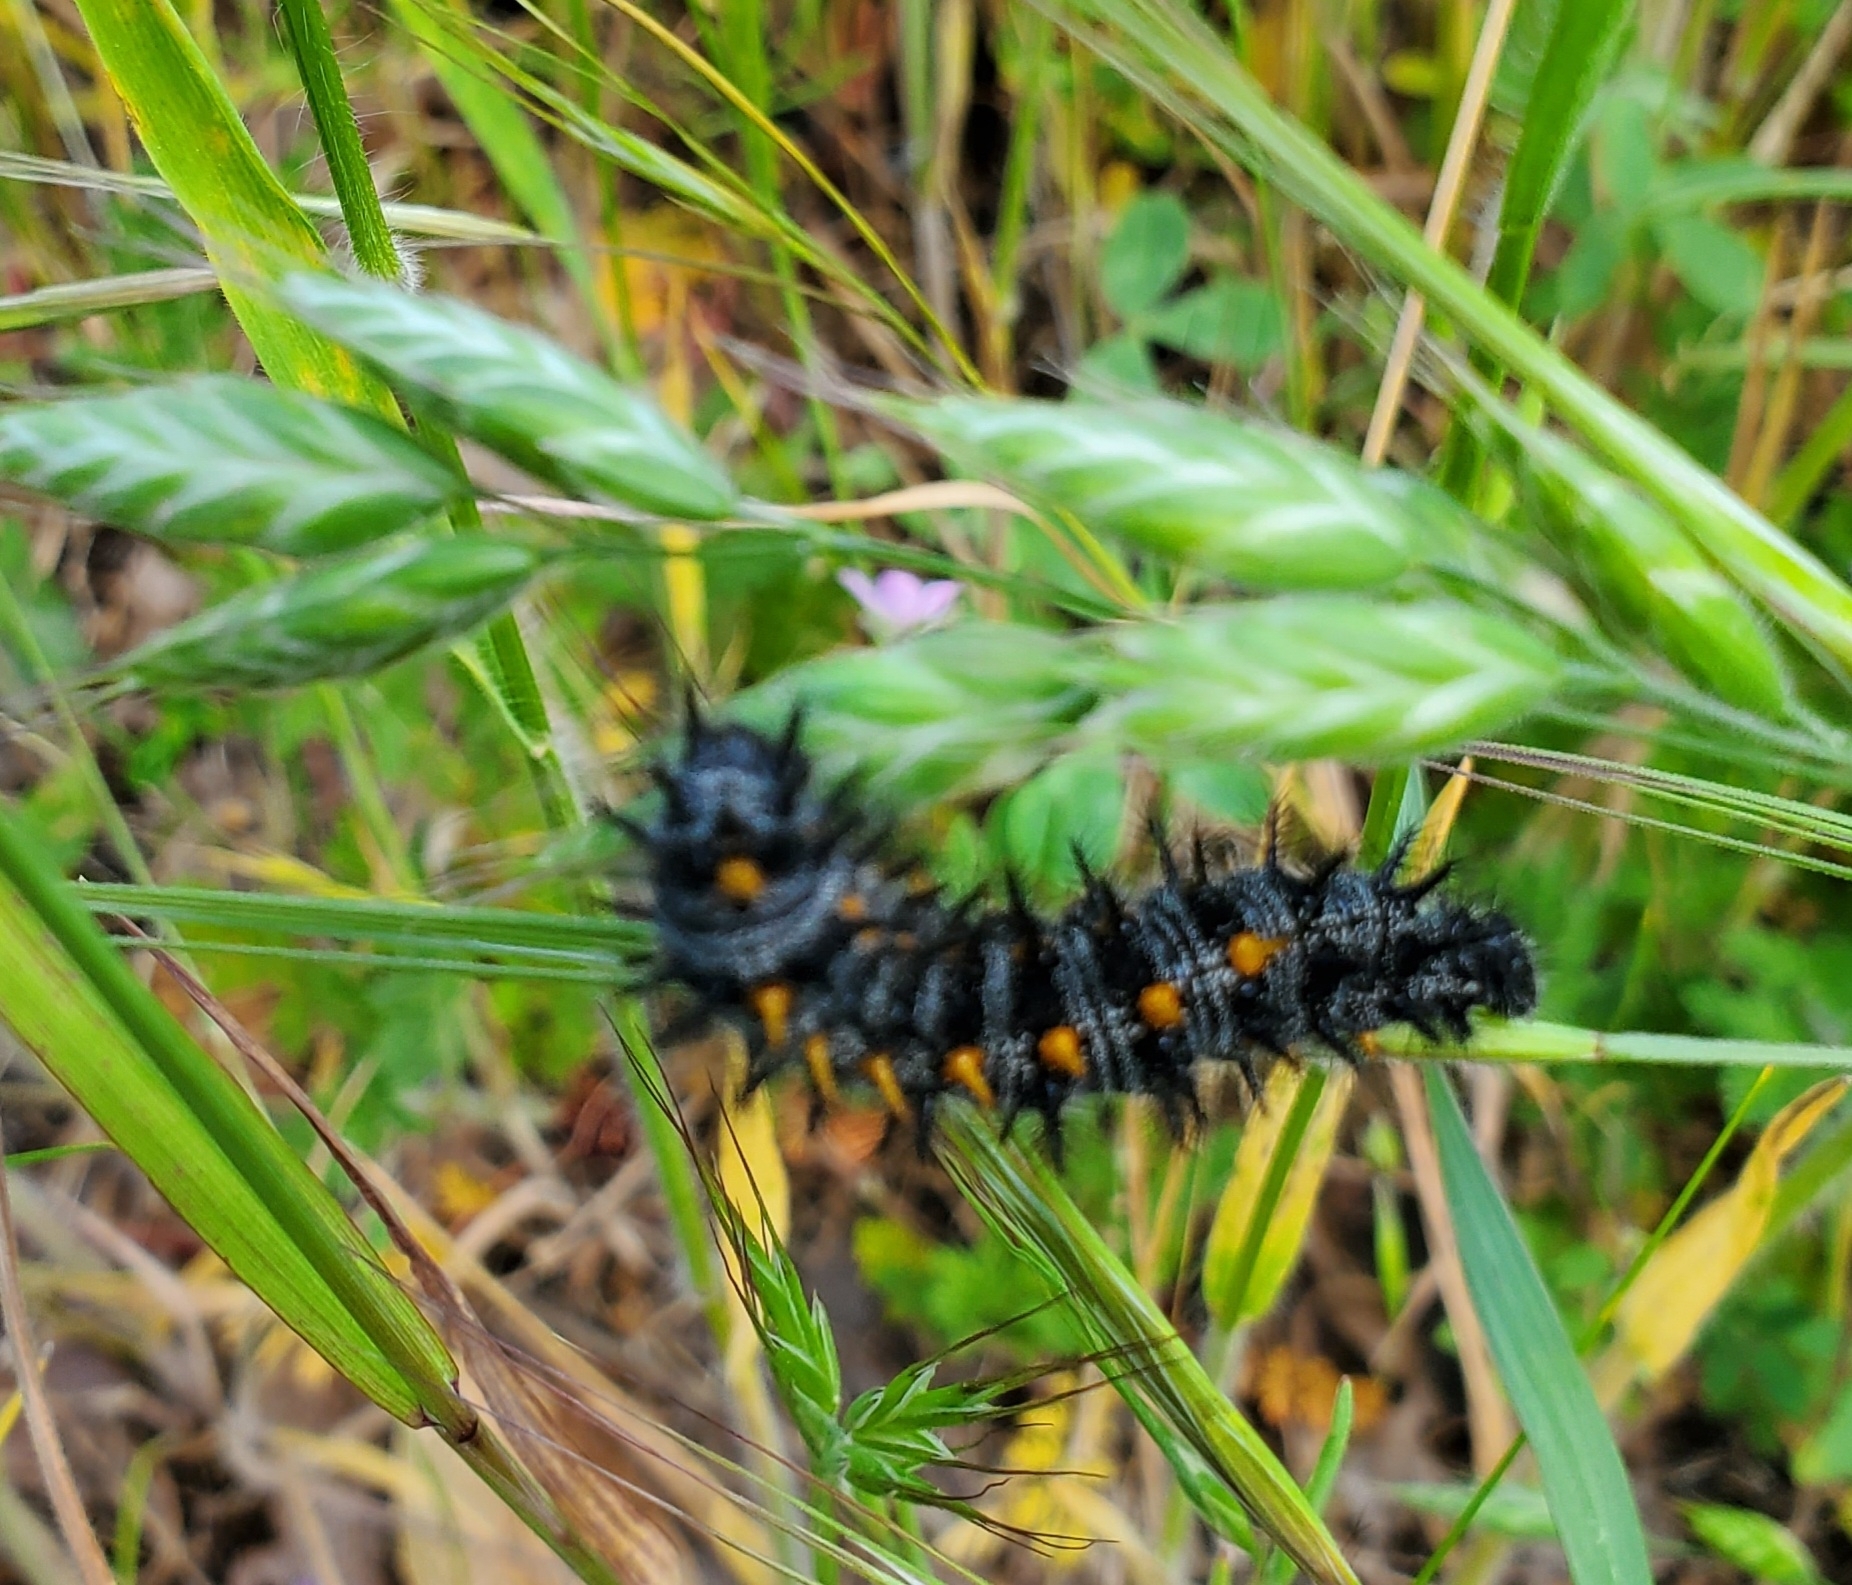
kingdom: Animalia
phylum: Arthropoda
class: Insecta
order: Lepidoptera
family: Nymphalidae
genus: Occidryas
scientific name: Occidryas chalcedona
